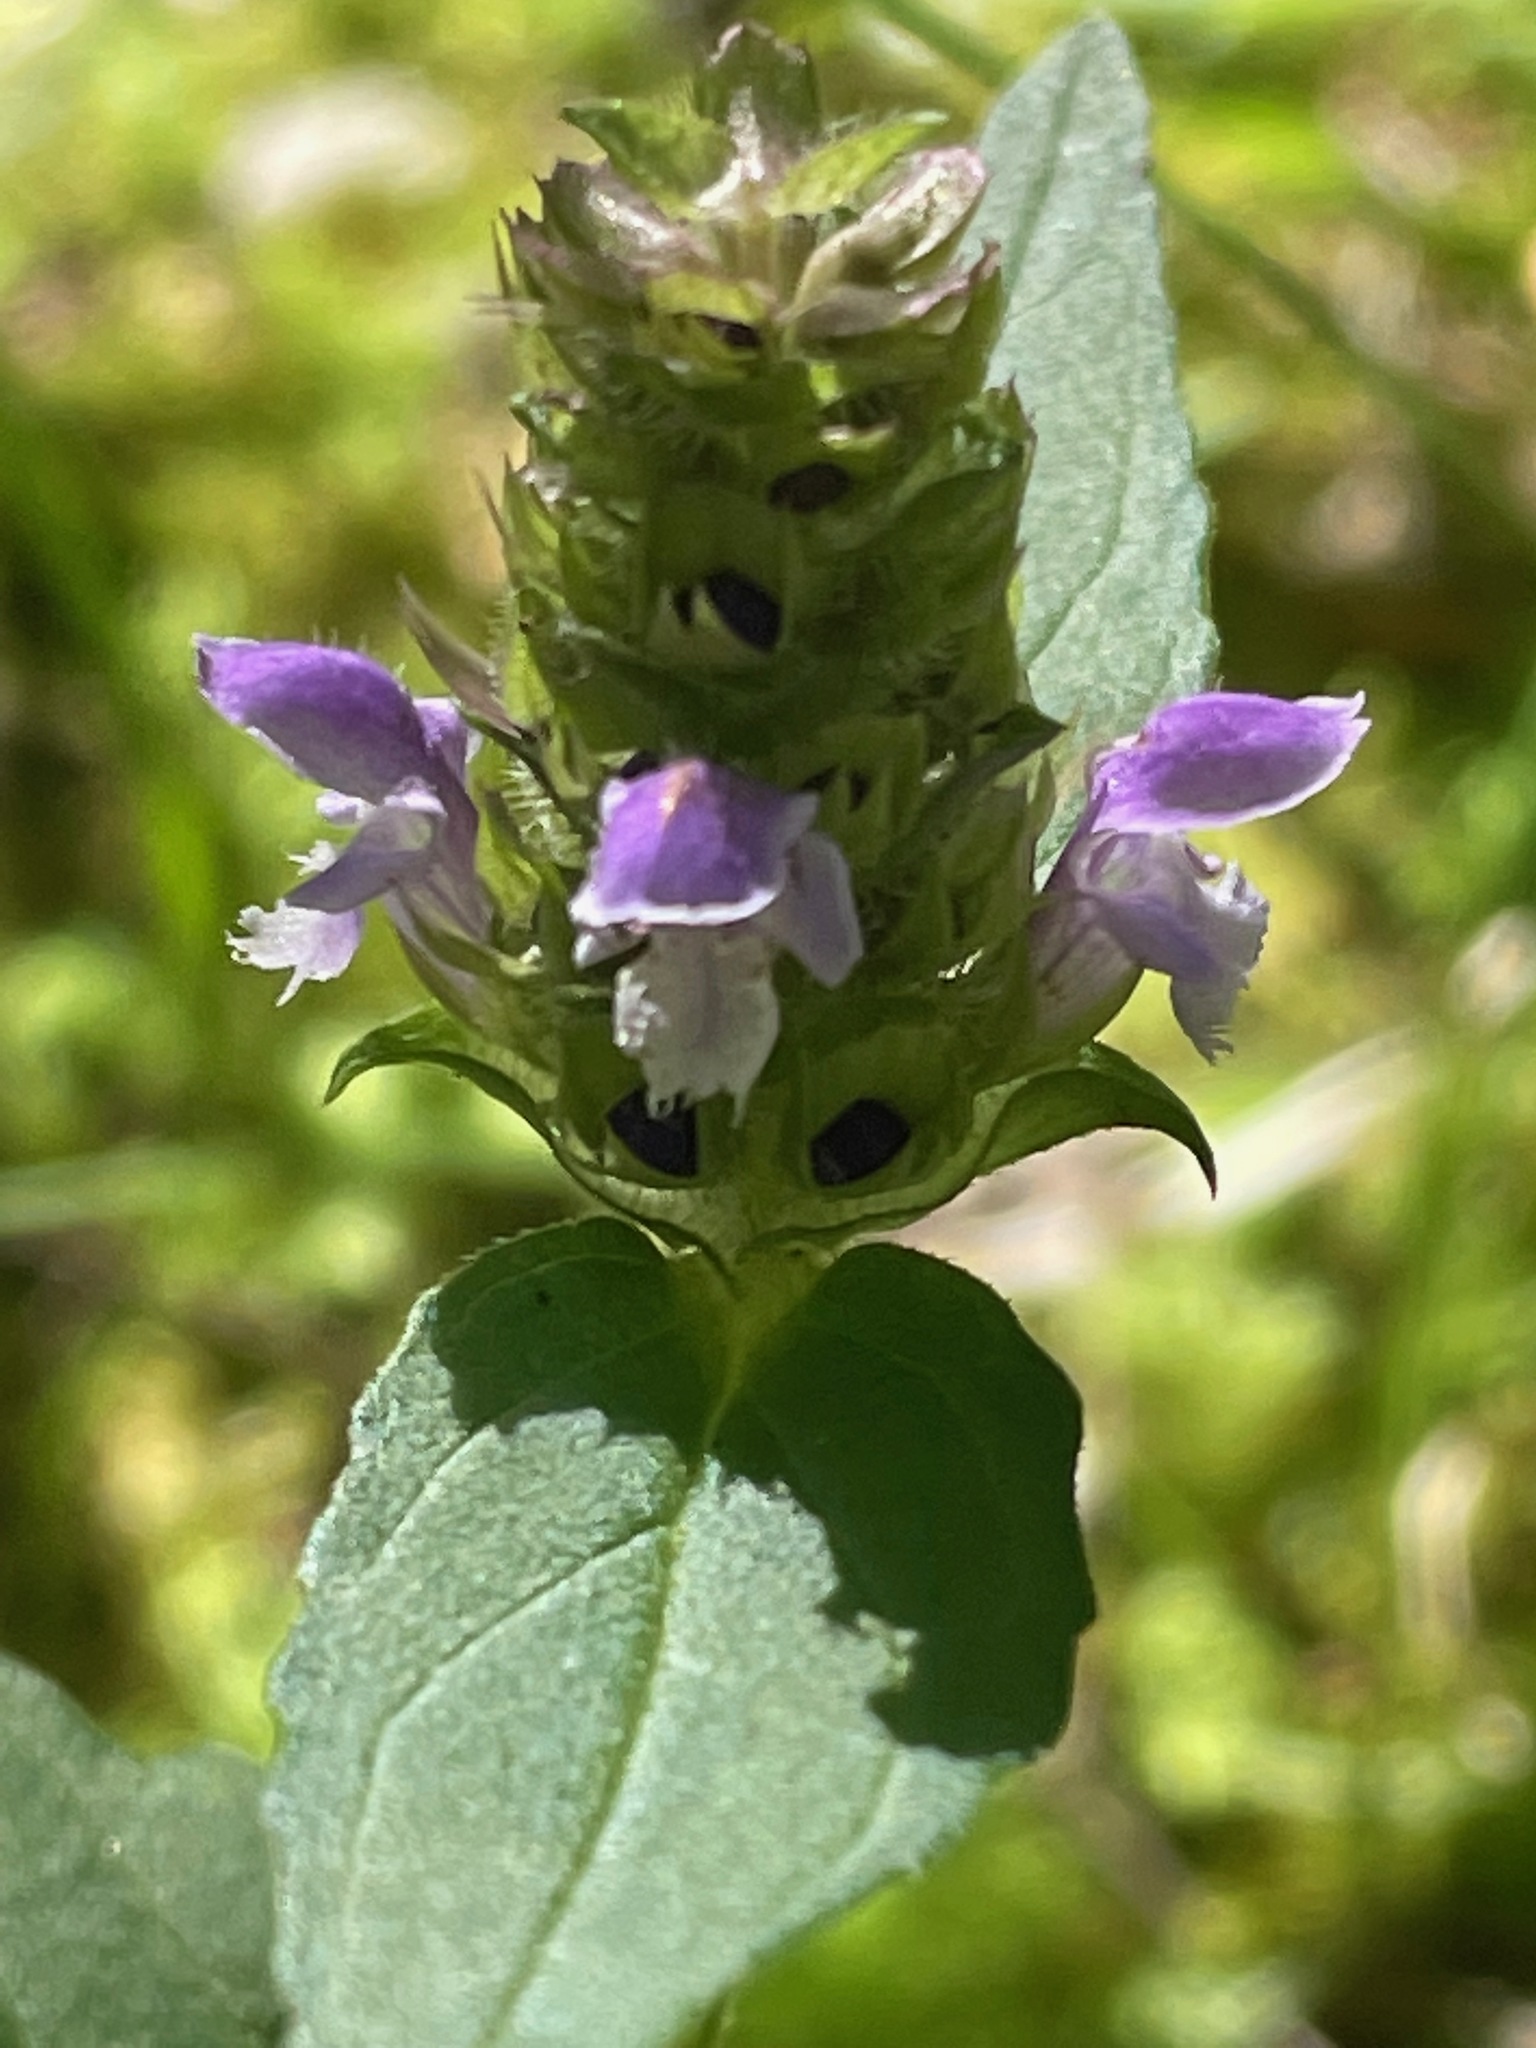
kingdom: Plantae
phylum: Tracheophyta
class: Magnoliopsida
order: Lamiales
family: Lamiaceae
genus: Prunella
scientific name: Prunella vulgaris
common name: Heal-all
